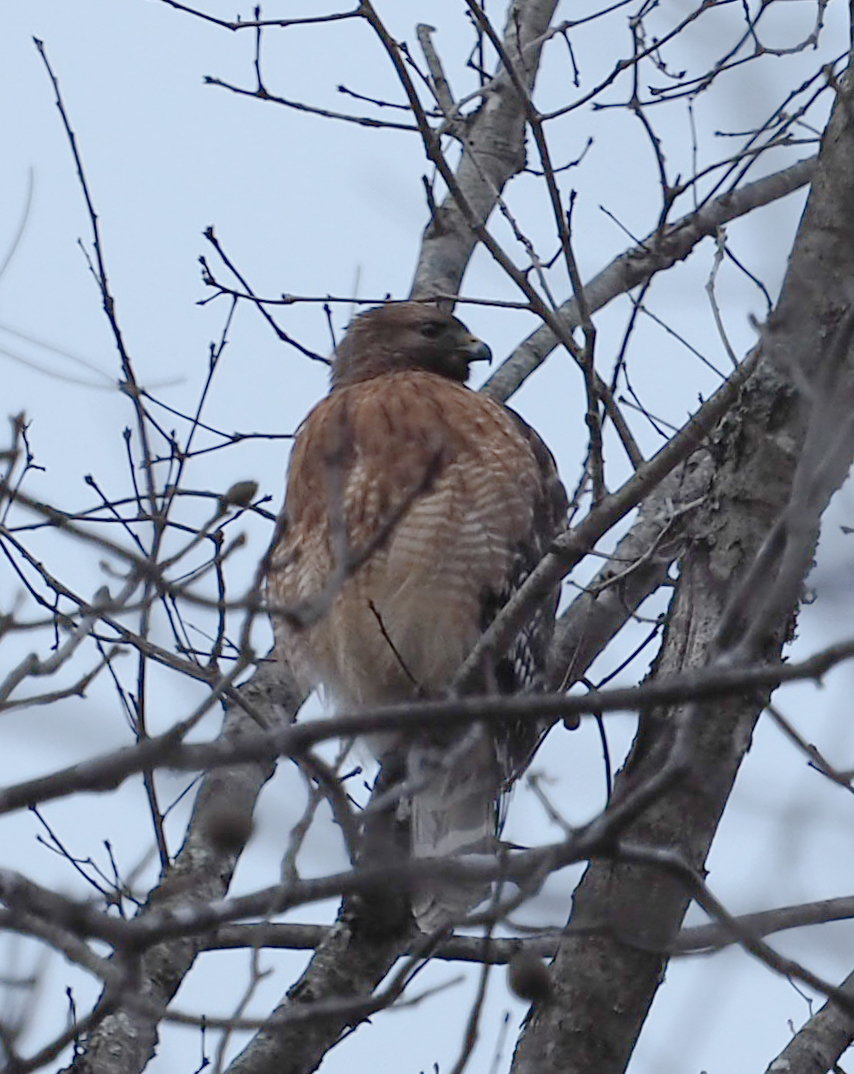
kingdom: Animalia
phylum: Chordata
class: Aves
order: Accipitriformes
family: Accipitridae
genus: Buteo
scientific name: Buteo lineatus
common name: Red-shouldered hawk
